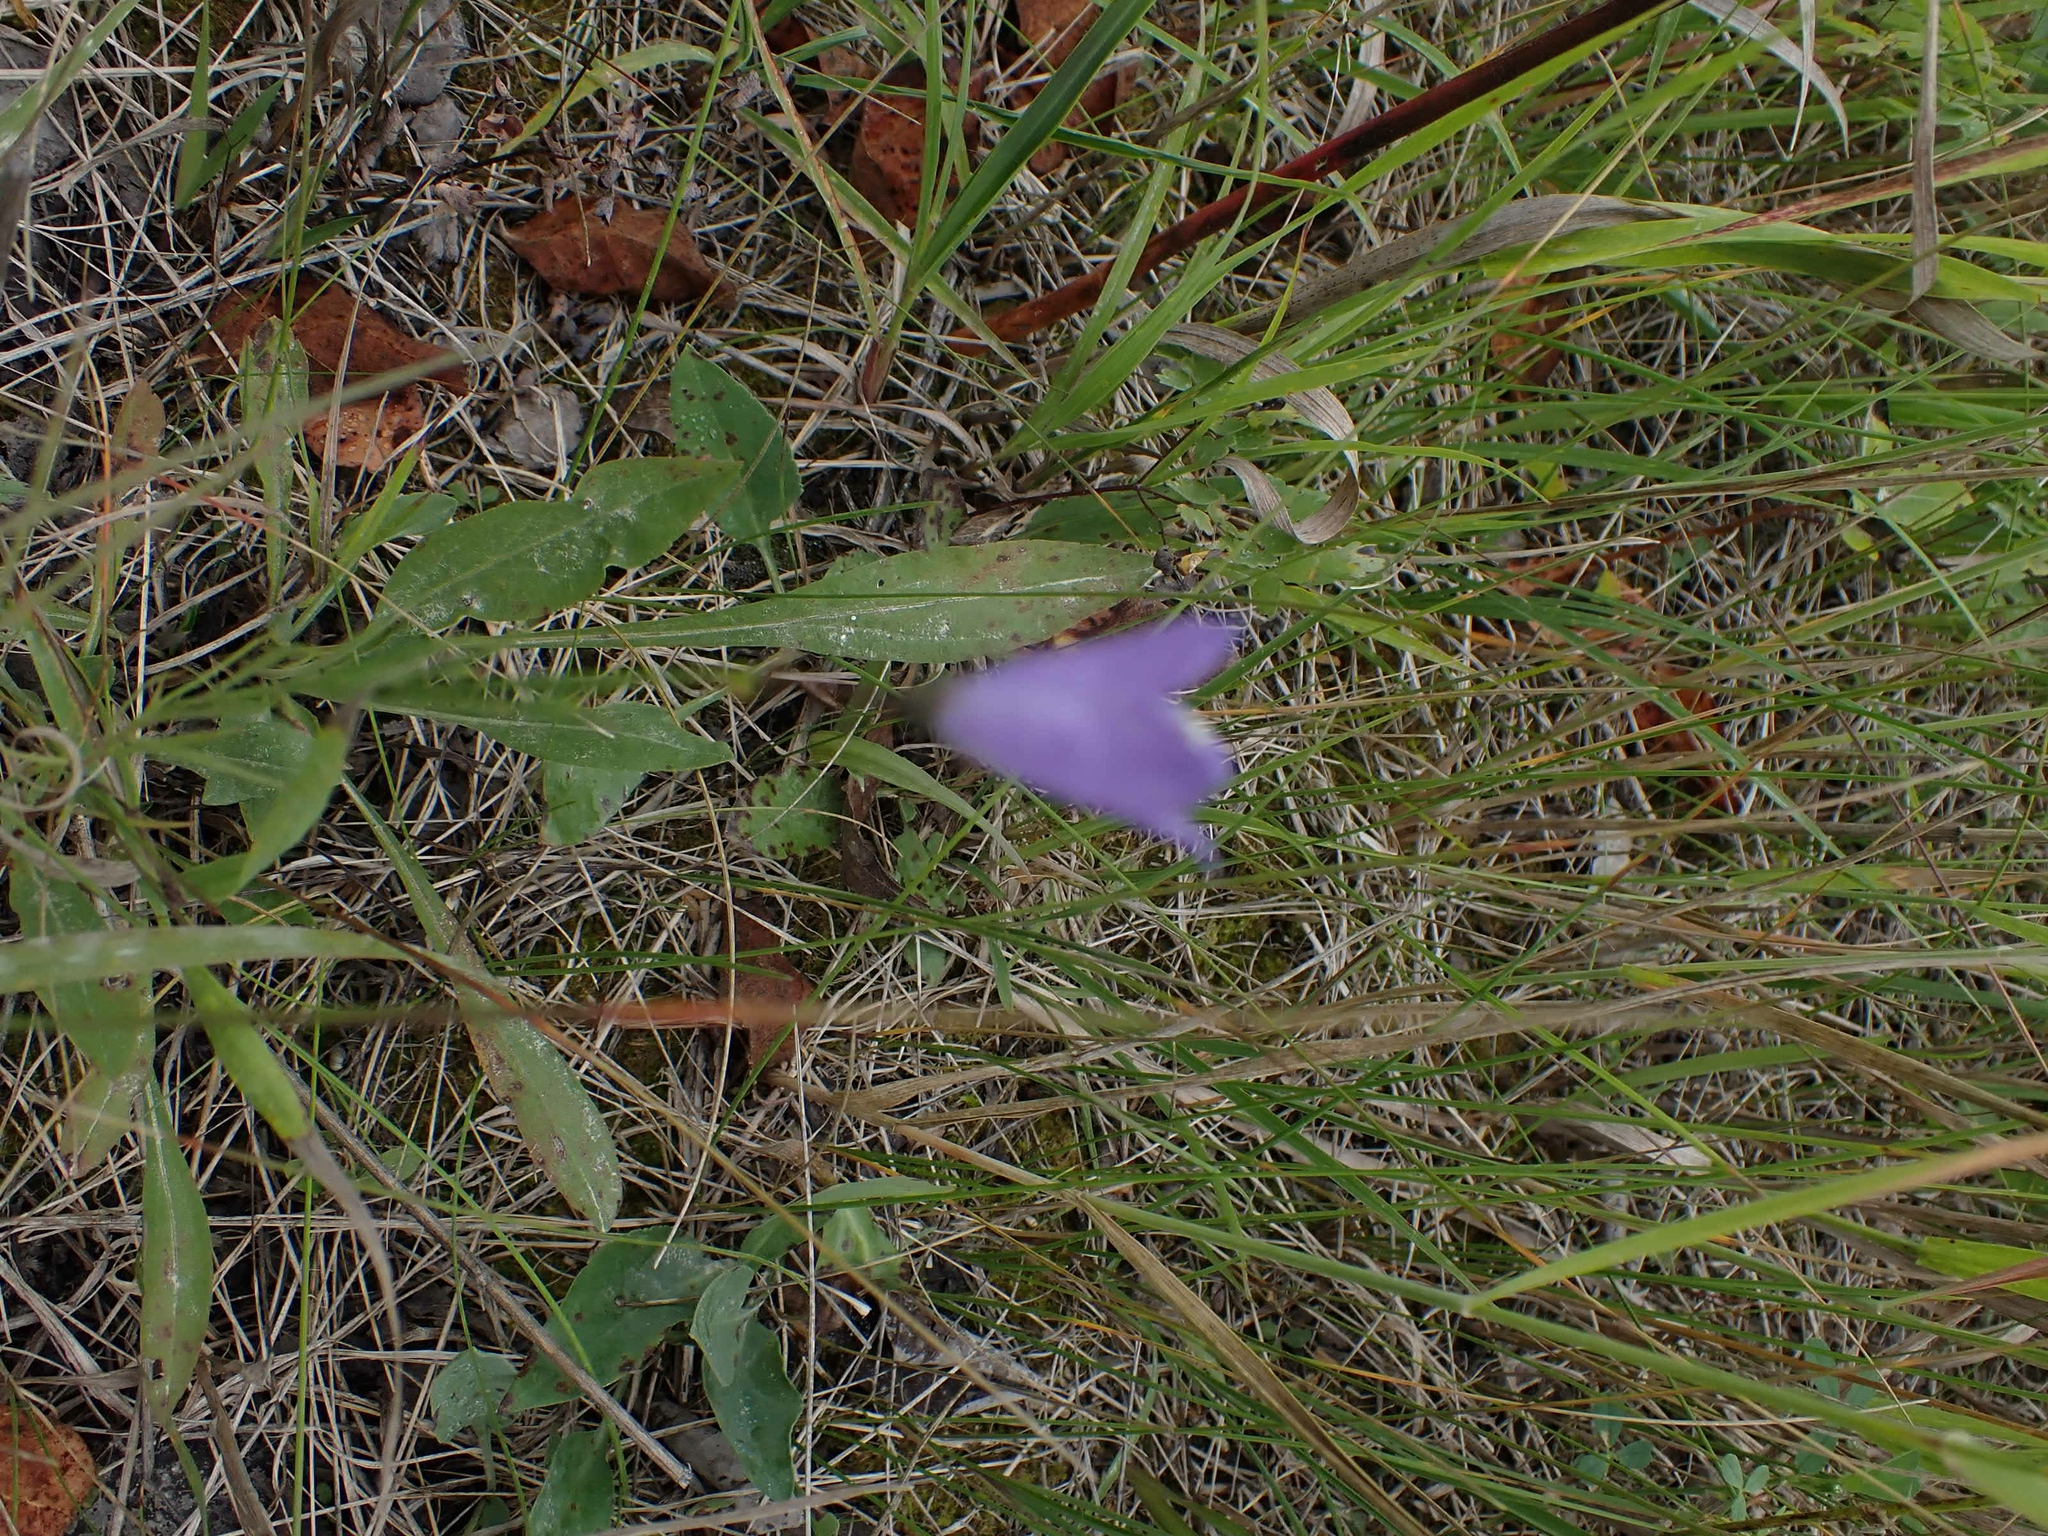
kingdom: Plantae
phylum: Tracheophyta
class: Magnoliopsida
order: Asterales
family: Campanulaceae
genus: Campanula
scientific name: Campanula petiolata
